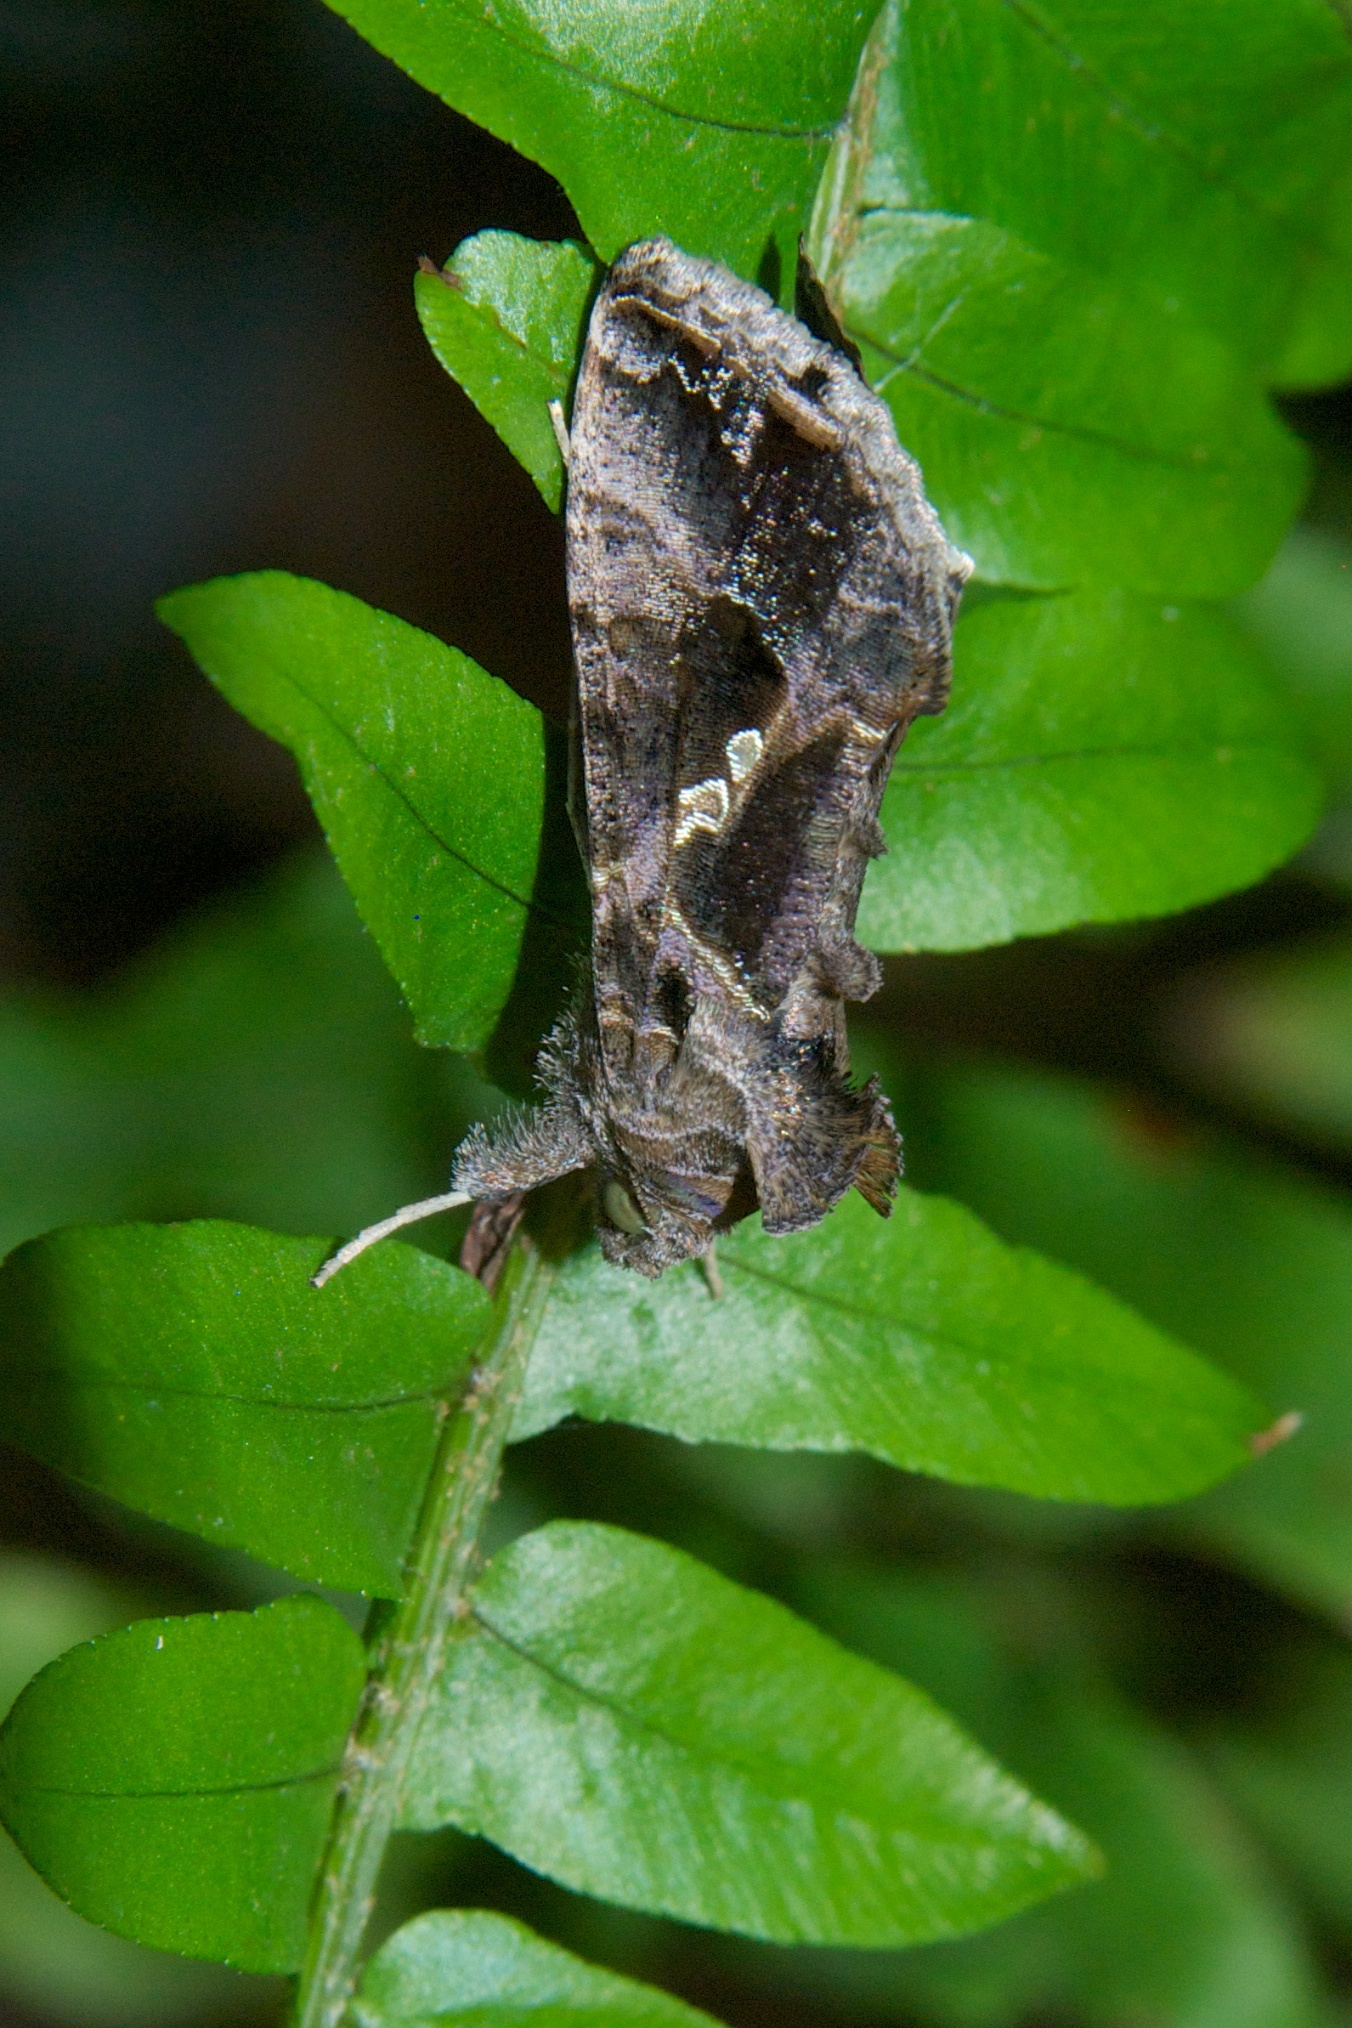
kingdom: Animalia
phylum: Arthropoda
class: Insecta
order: Lepidoptera
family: Noctuidae
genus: Chrysodeixis
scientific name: Chrysodeixis includens
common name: Cutworm moth
